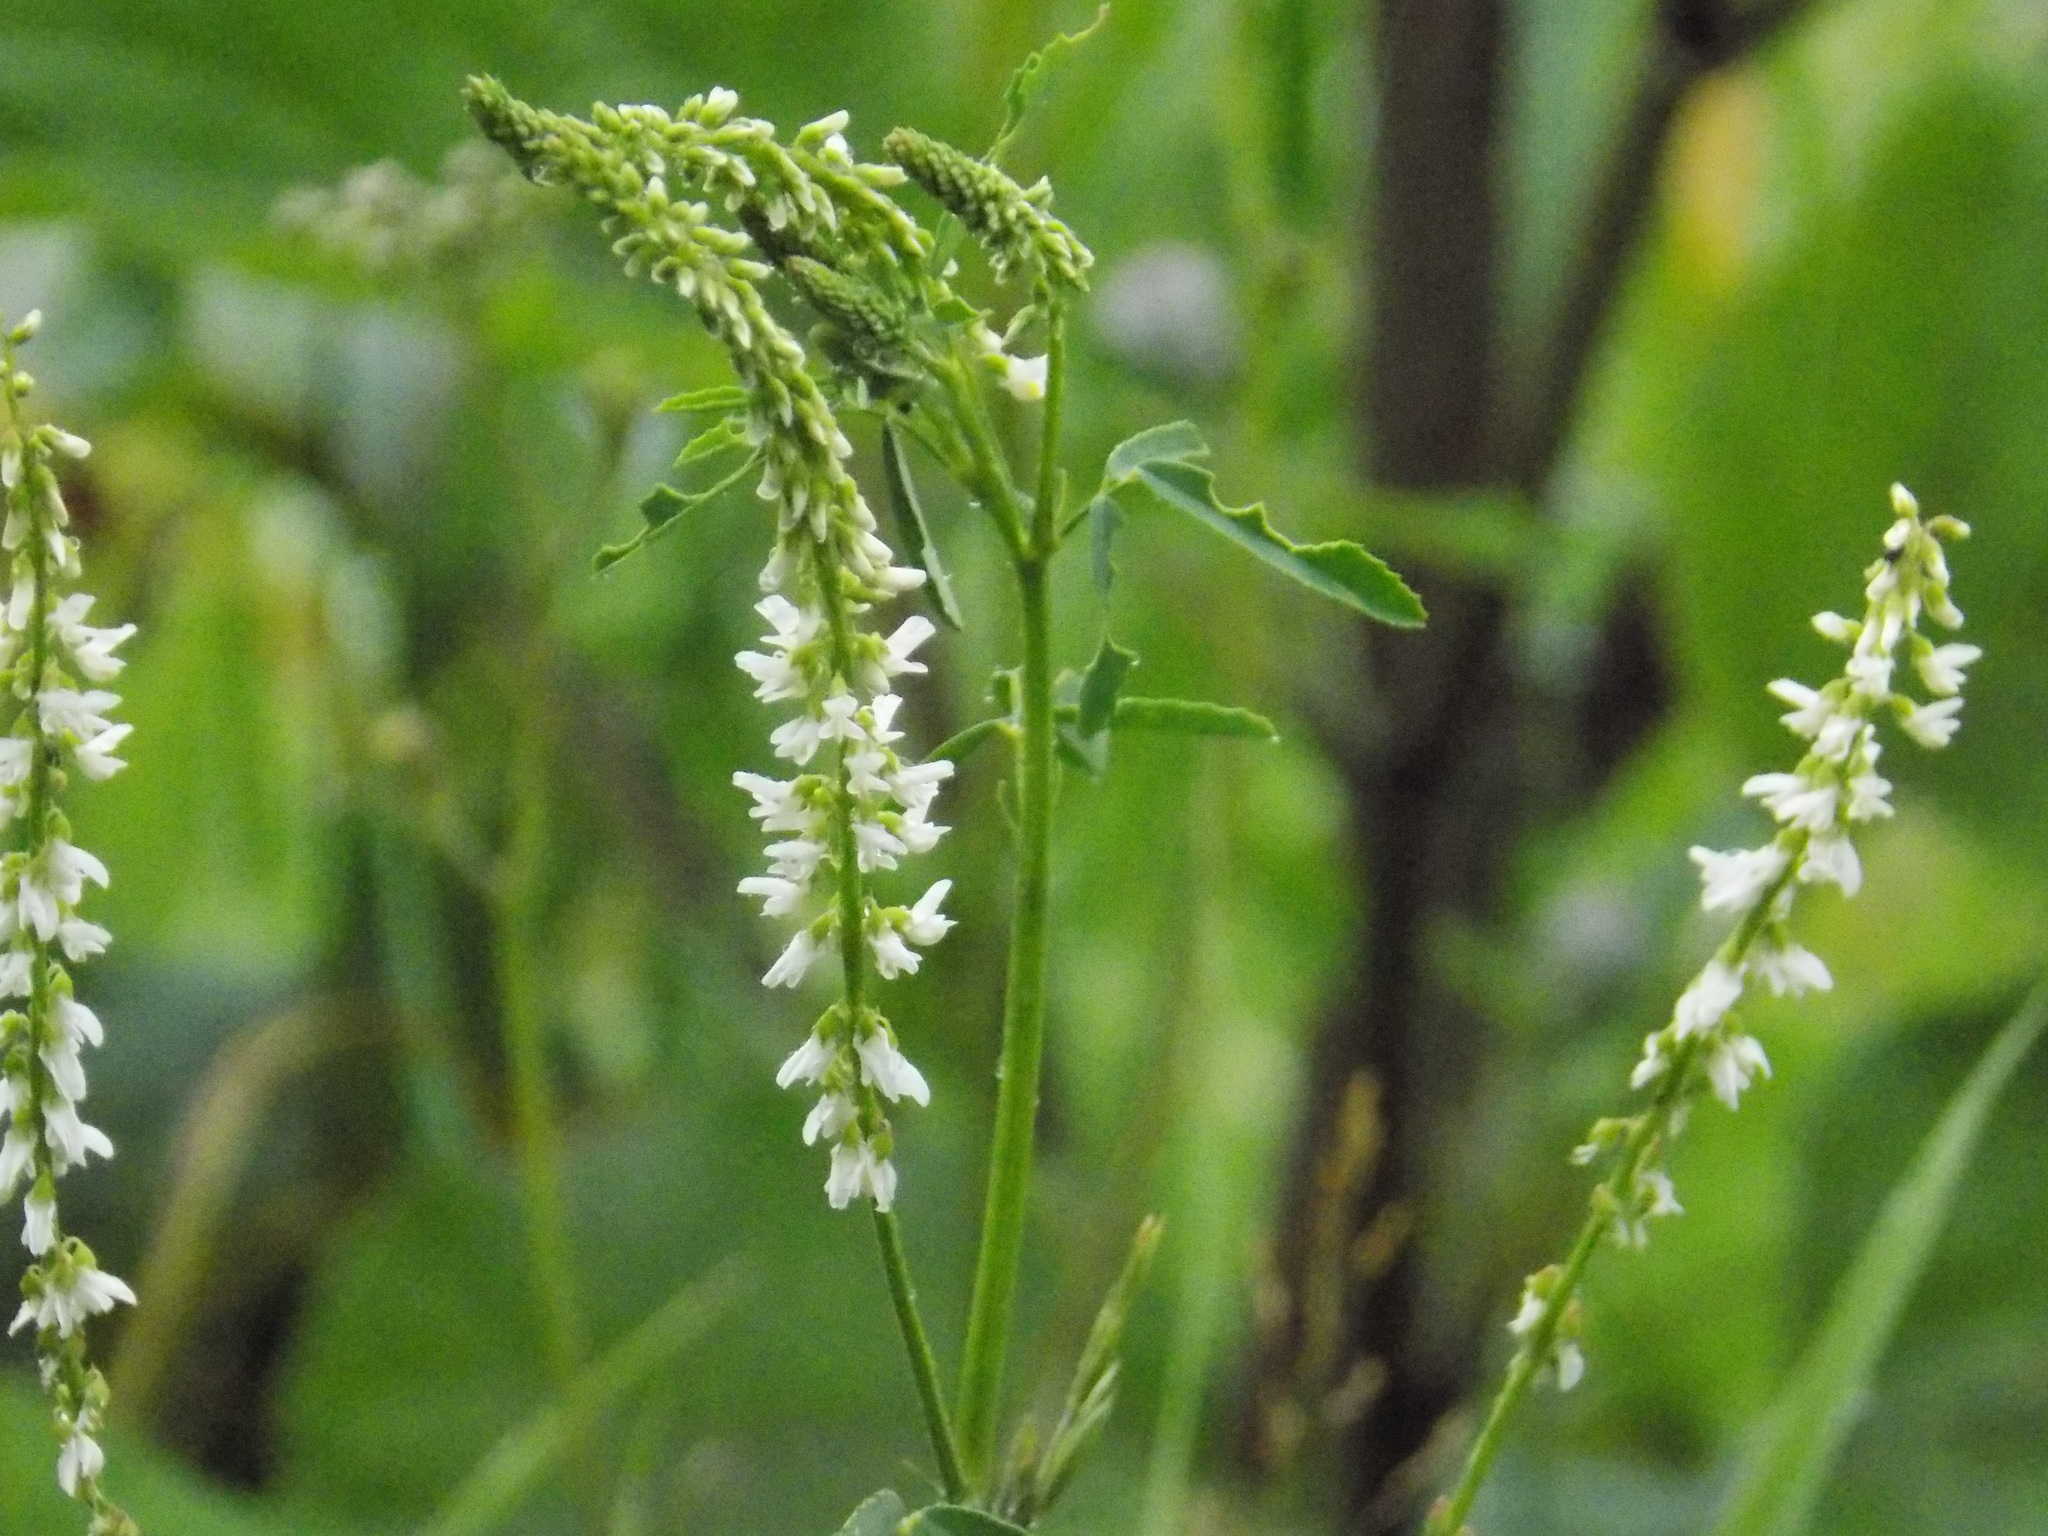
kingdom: Plantae
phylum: Tracheophyta
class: Magnoliopsida
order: Fabales
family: Fabaceae
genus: Melilotus
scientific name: Melilotus albus
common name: White melilot
